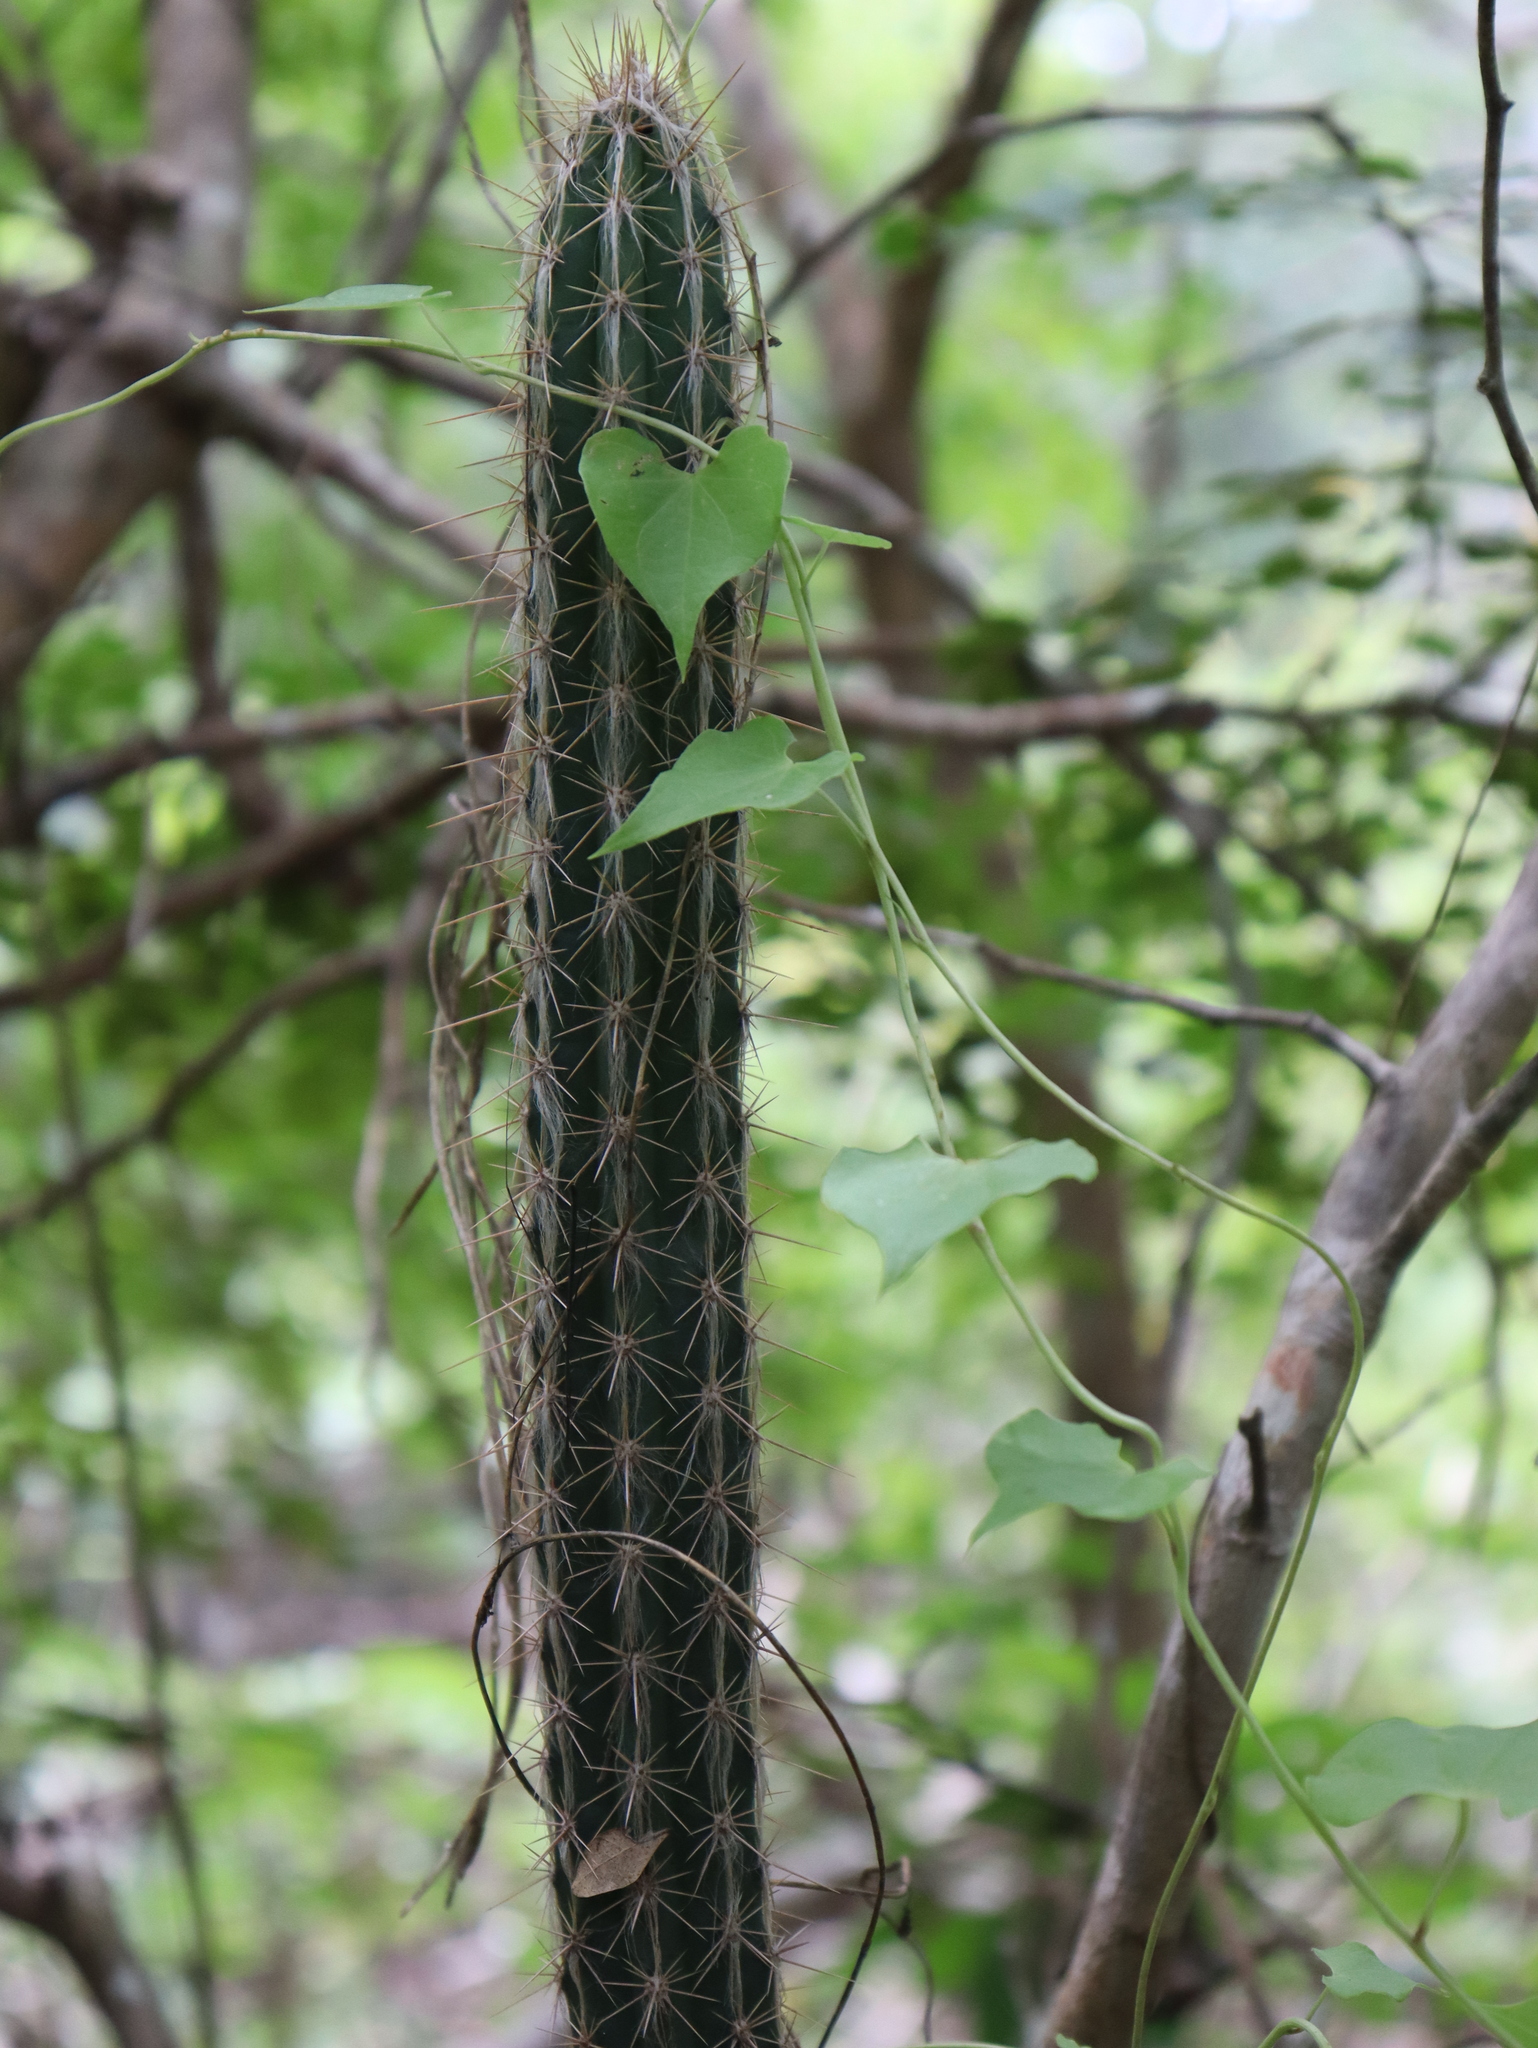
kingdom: Plantae
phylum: Tracheophyta
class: Magnoliopsida
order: Caryophyllales
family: Cactaceae
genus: Pilosocereus
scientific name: Pilosocereus gaumeri
